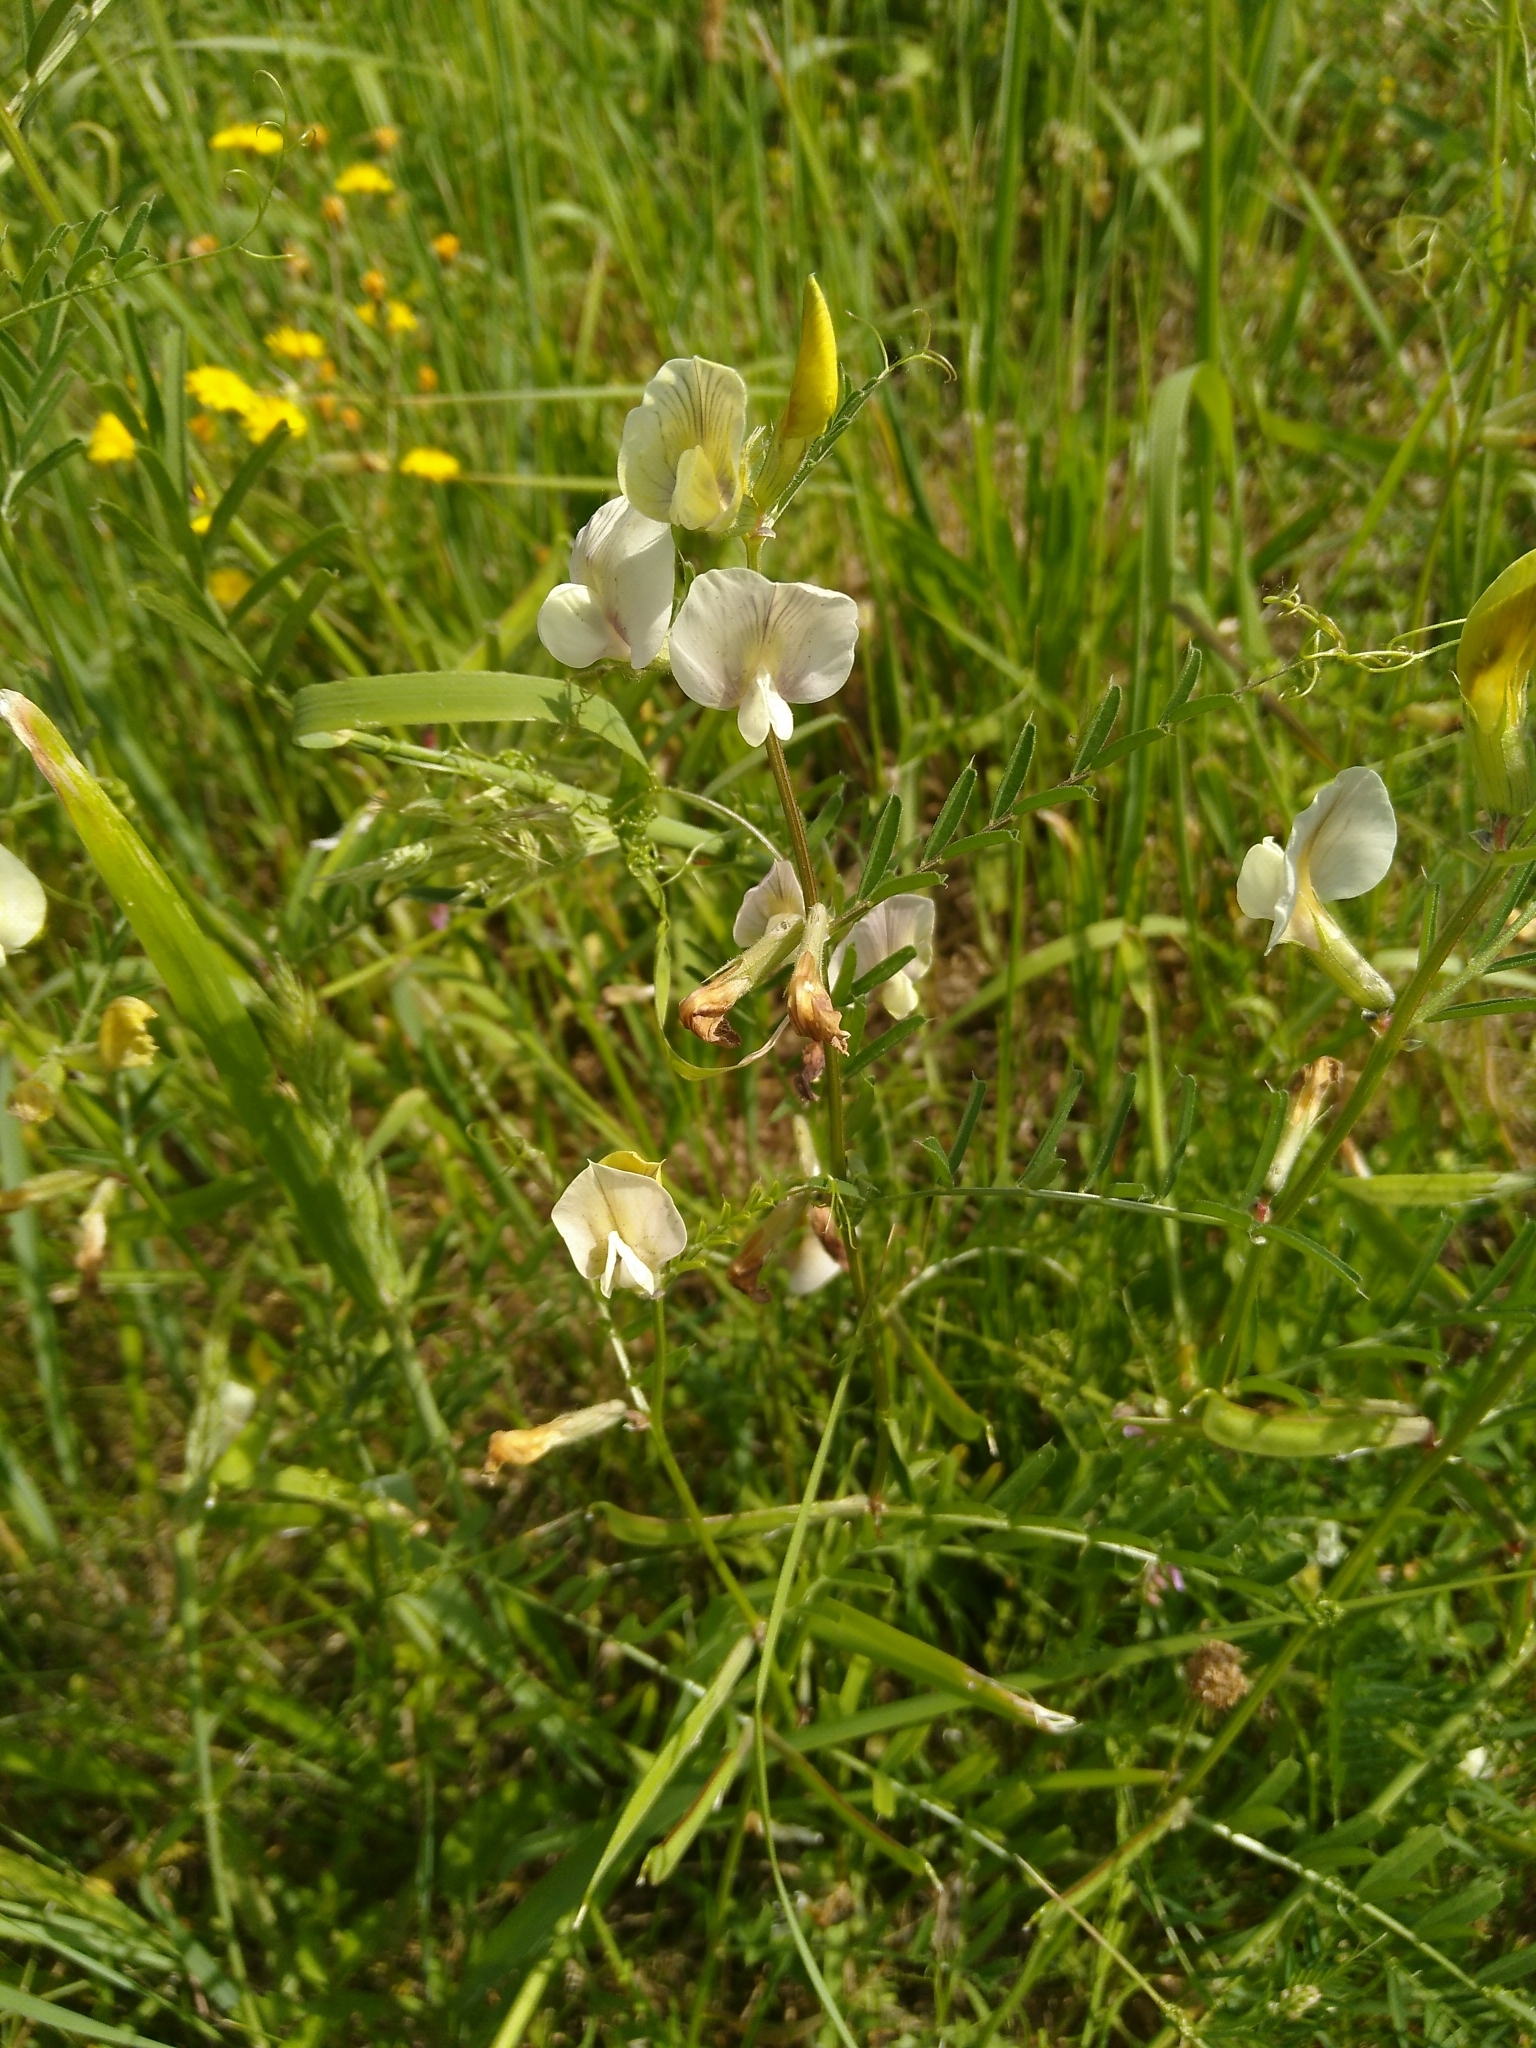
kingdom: Plantae
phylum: Tracheophyta
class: Magnoliopsida
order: Fabales
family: Fabaceae
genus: Vicia
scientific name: Vicia grandiflora
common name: Large yellow vetch
